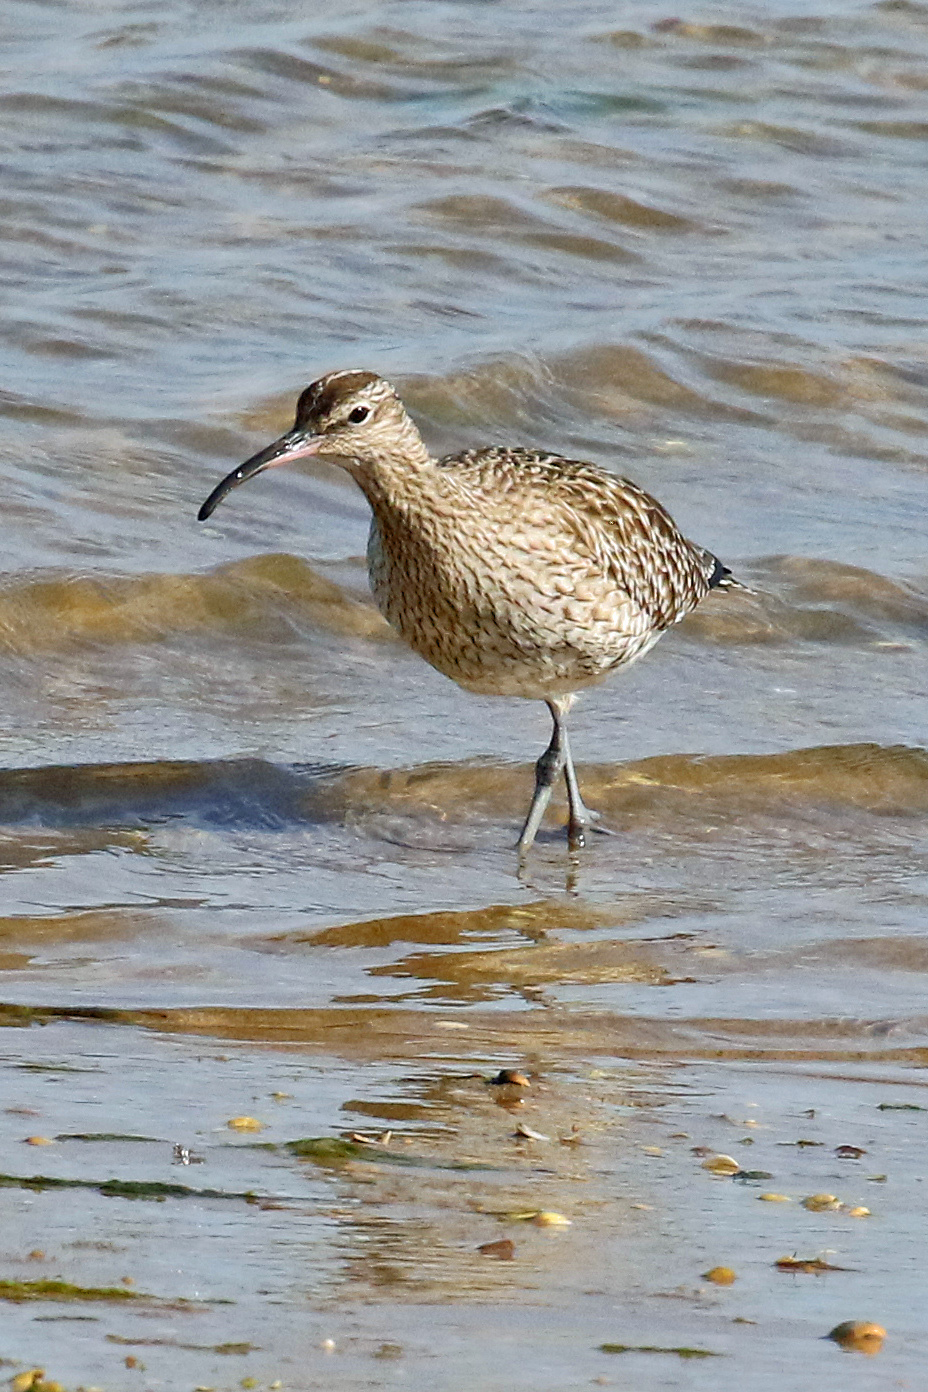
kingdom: Animalia
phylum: Chordata
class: Aves
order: Charadriiformes
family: Scolopacidae
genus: Numenius
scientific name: Numenius phaeopus
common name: Whimbrel
